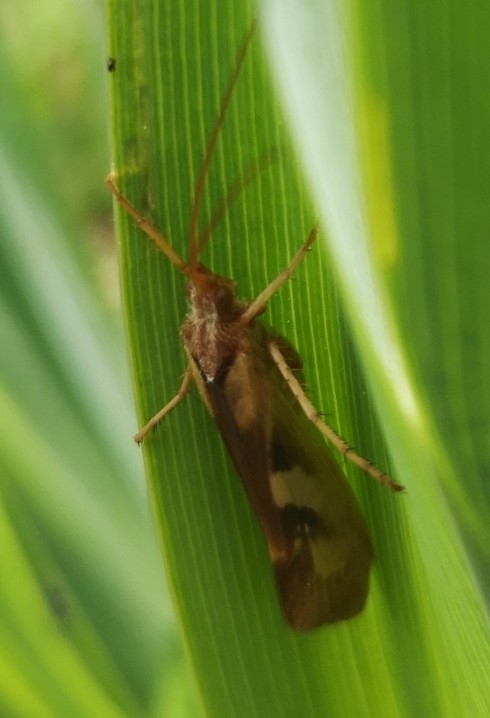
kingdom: Animalia
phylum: Arthropoda
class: Insecta
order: Trichoptera
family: Limnephilidae
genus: Limnephilus
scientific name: Limnephilus rhombicus
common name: Diamond northern caddisfly
